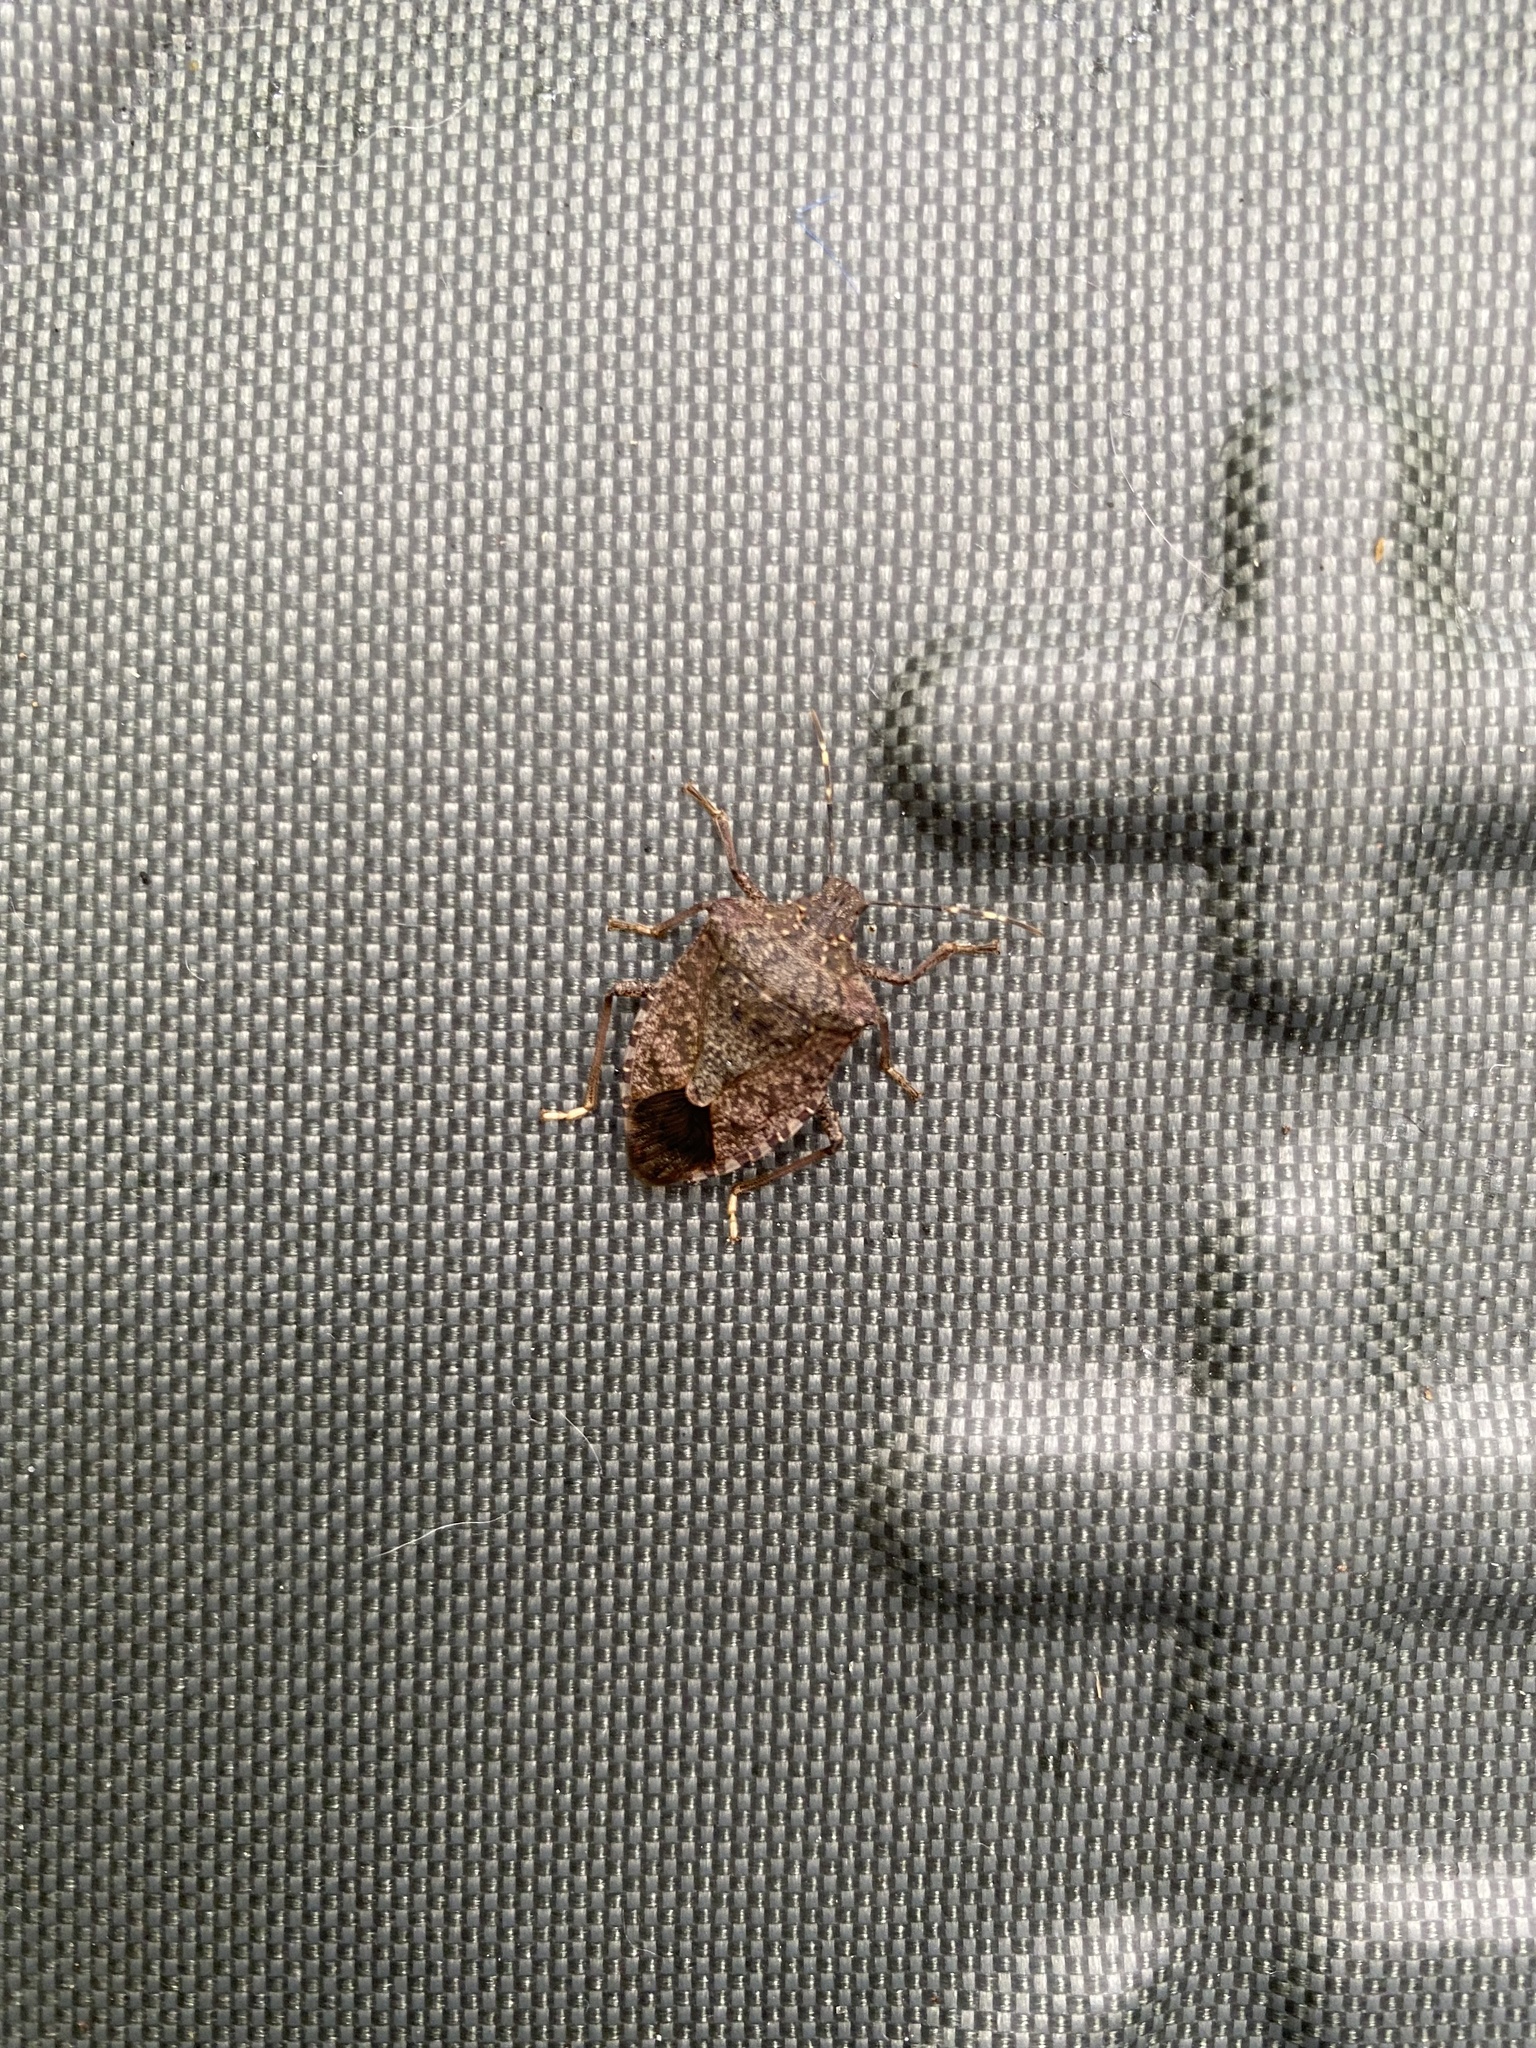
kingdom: Animalia
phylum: Arthropoda
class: Insecta
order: Hemiptera
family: Pentatomidae
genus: Halyomorpha
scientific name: Halyomorpha halys
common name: Brown marmorated stink bug
